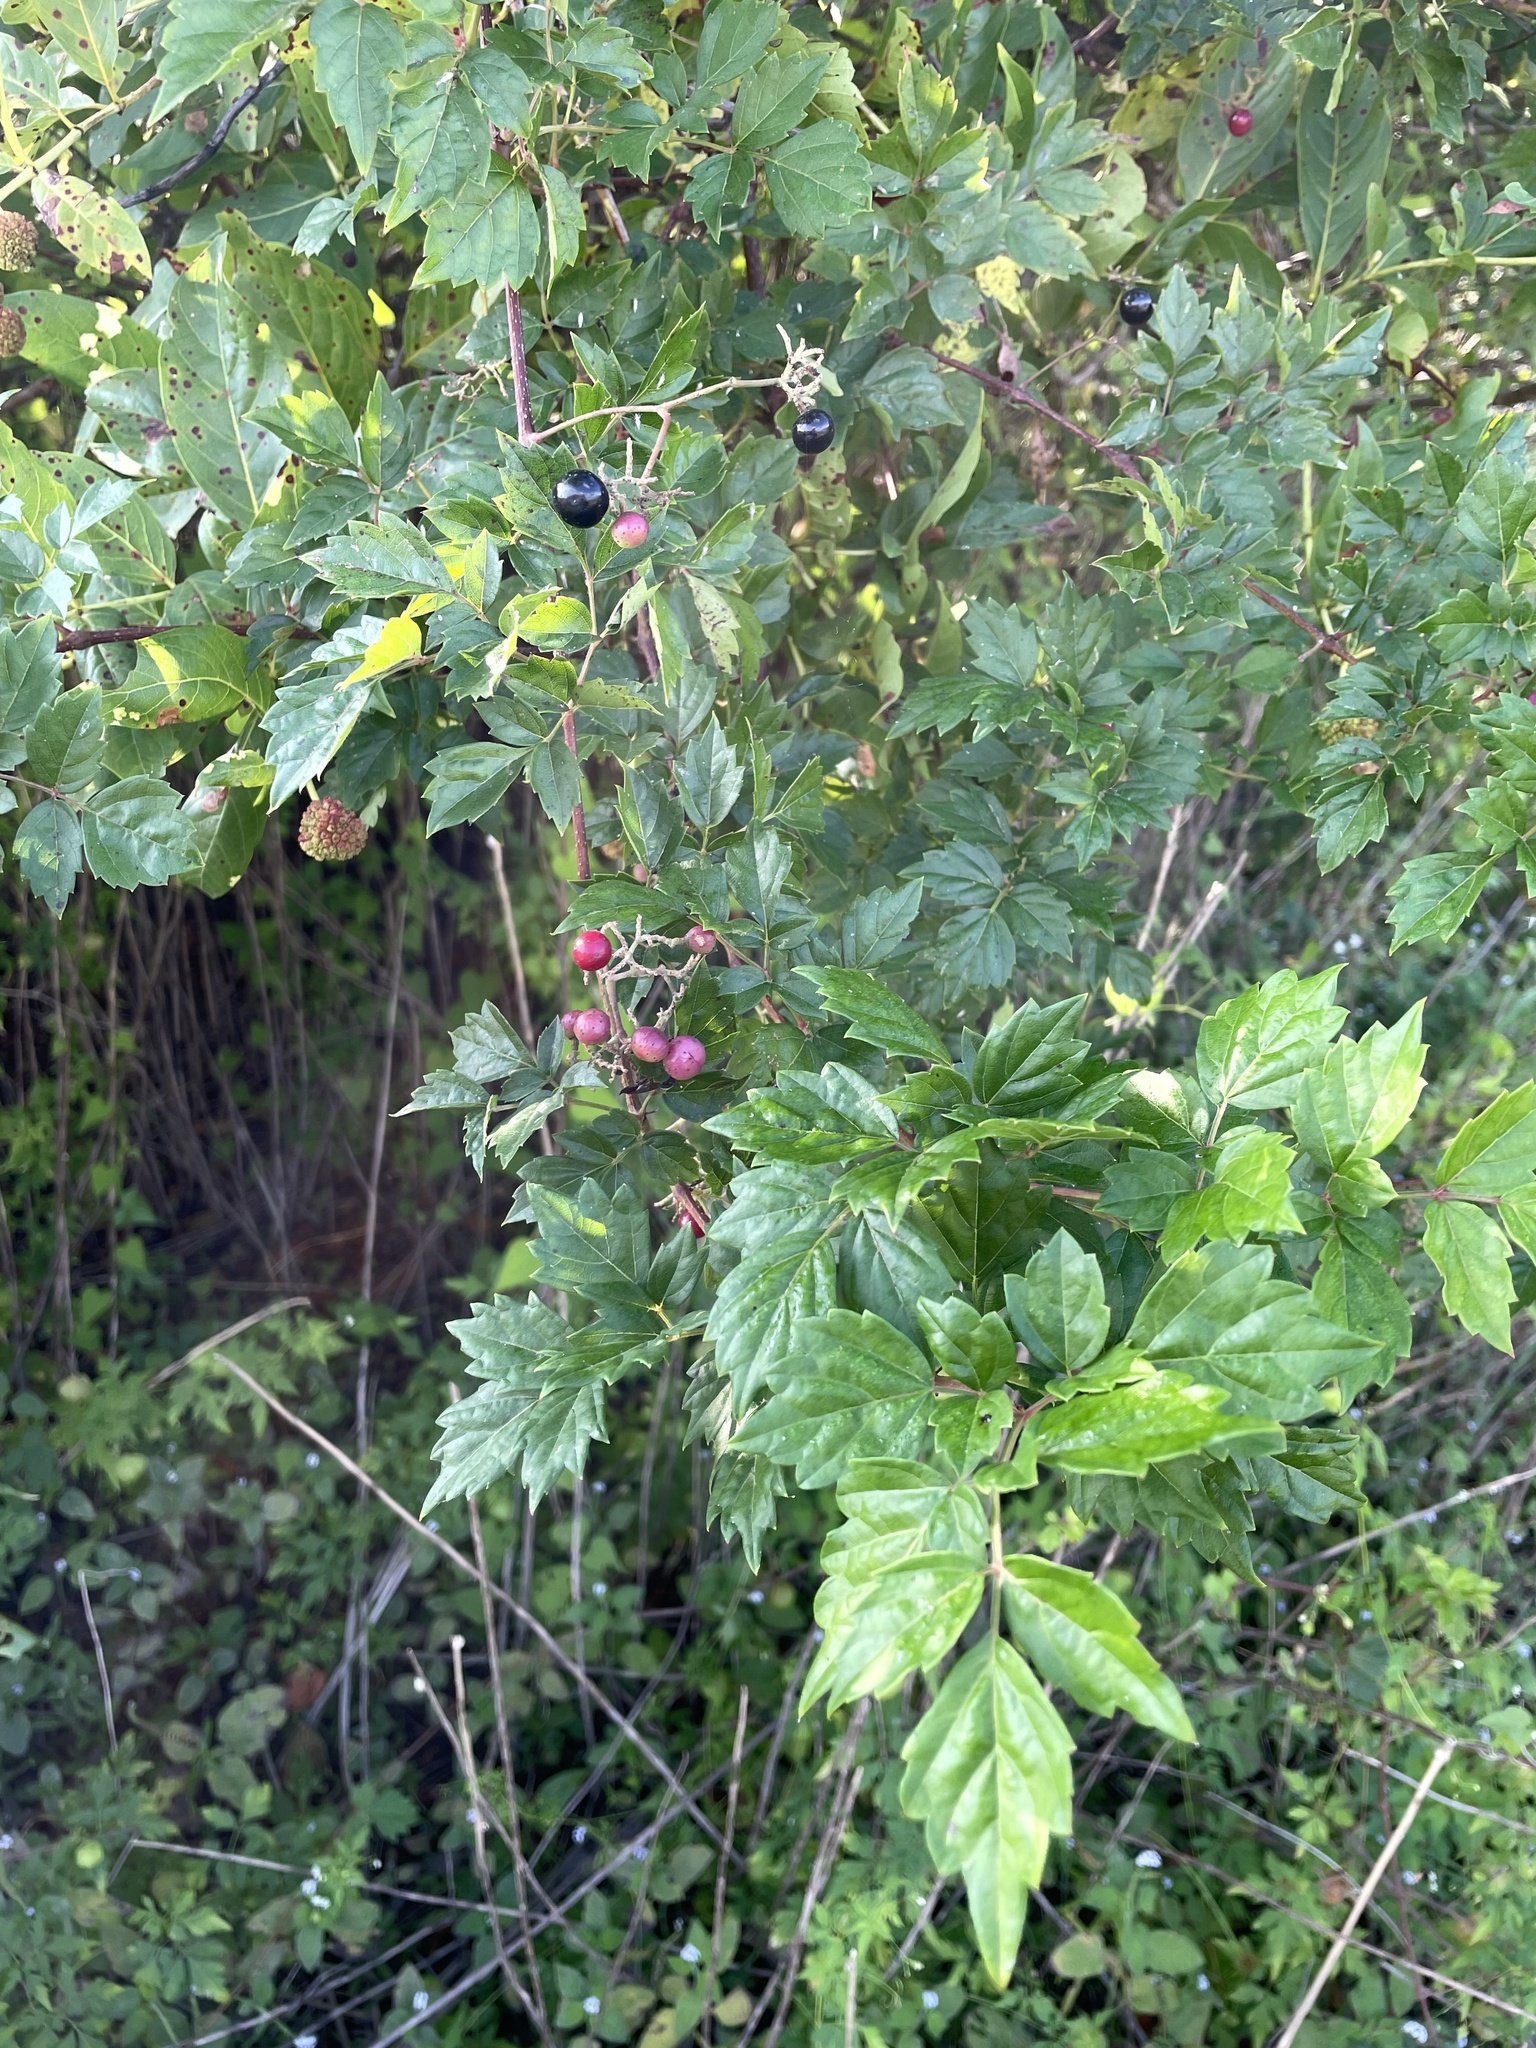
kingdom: Plantae
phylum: Tracheophyta
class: Magnoliopsida
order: Vitales
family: Vitaceae
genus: Nekemias
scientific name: Nekemias arborea
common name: Peppervine
